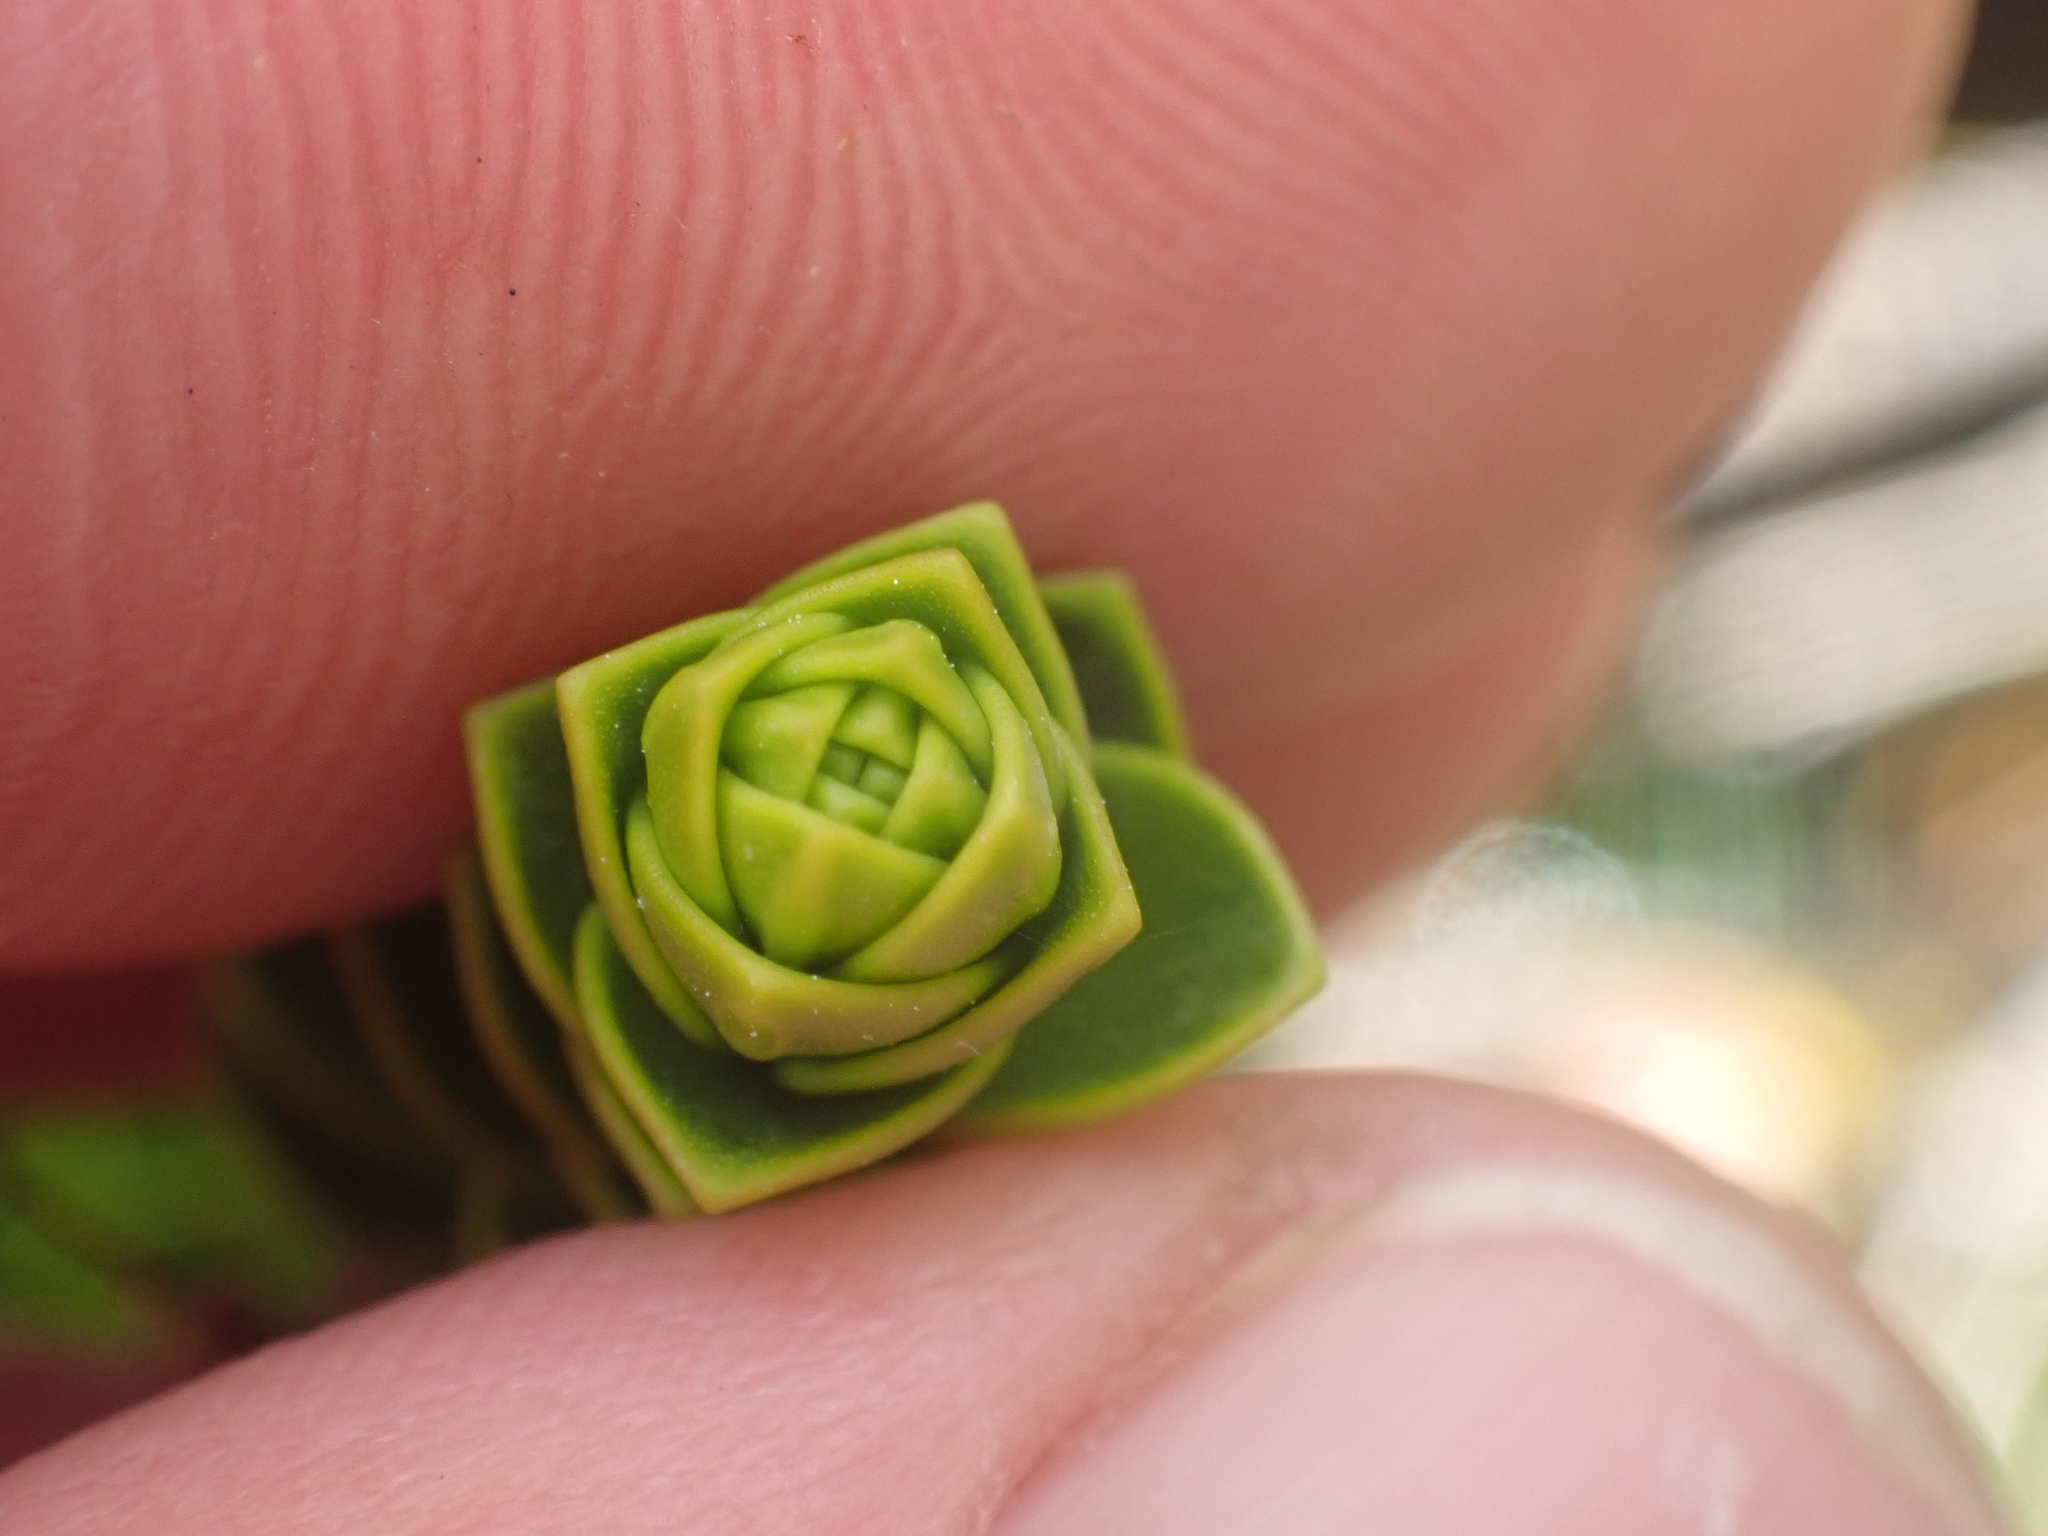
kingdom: Plantae
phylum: Tracheophyta
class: Magnoliopsida
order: Lamiales
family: Plantaginaceae
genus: Veronica
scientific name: Veronica pauciramosa
